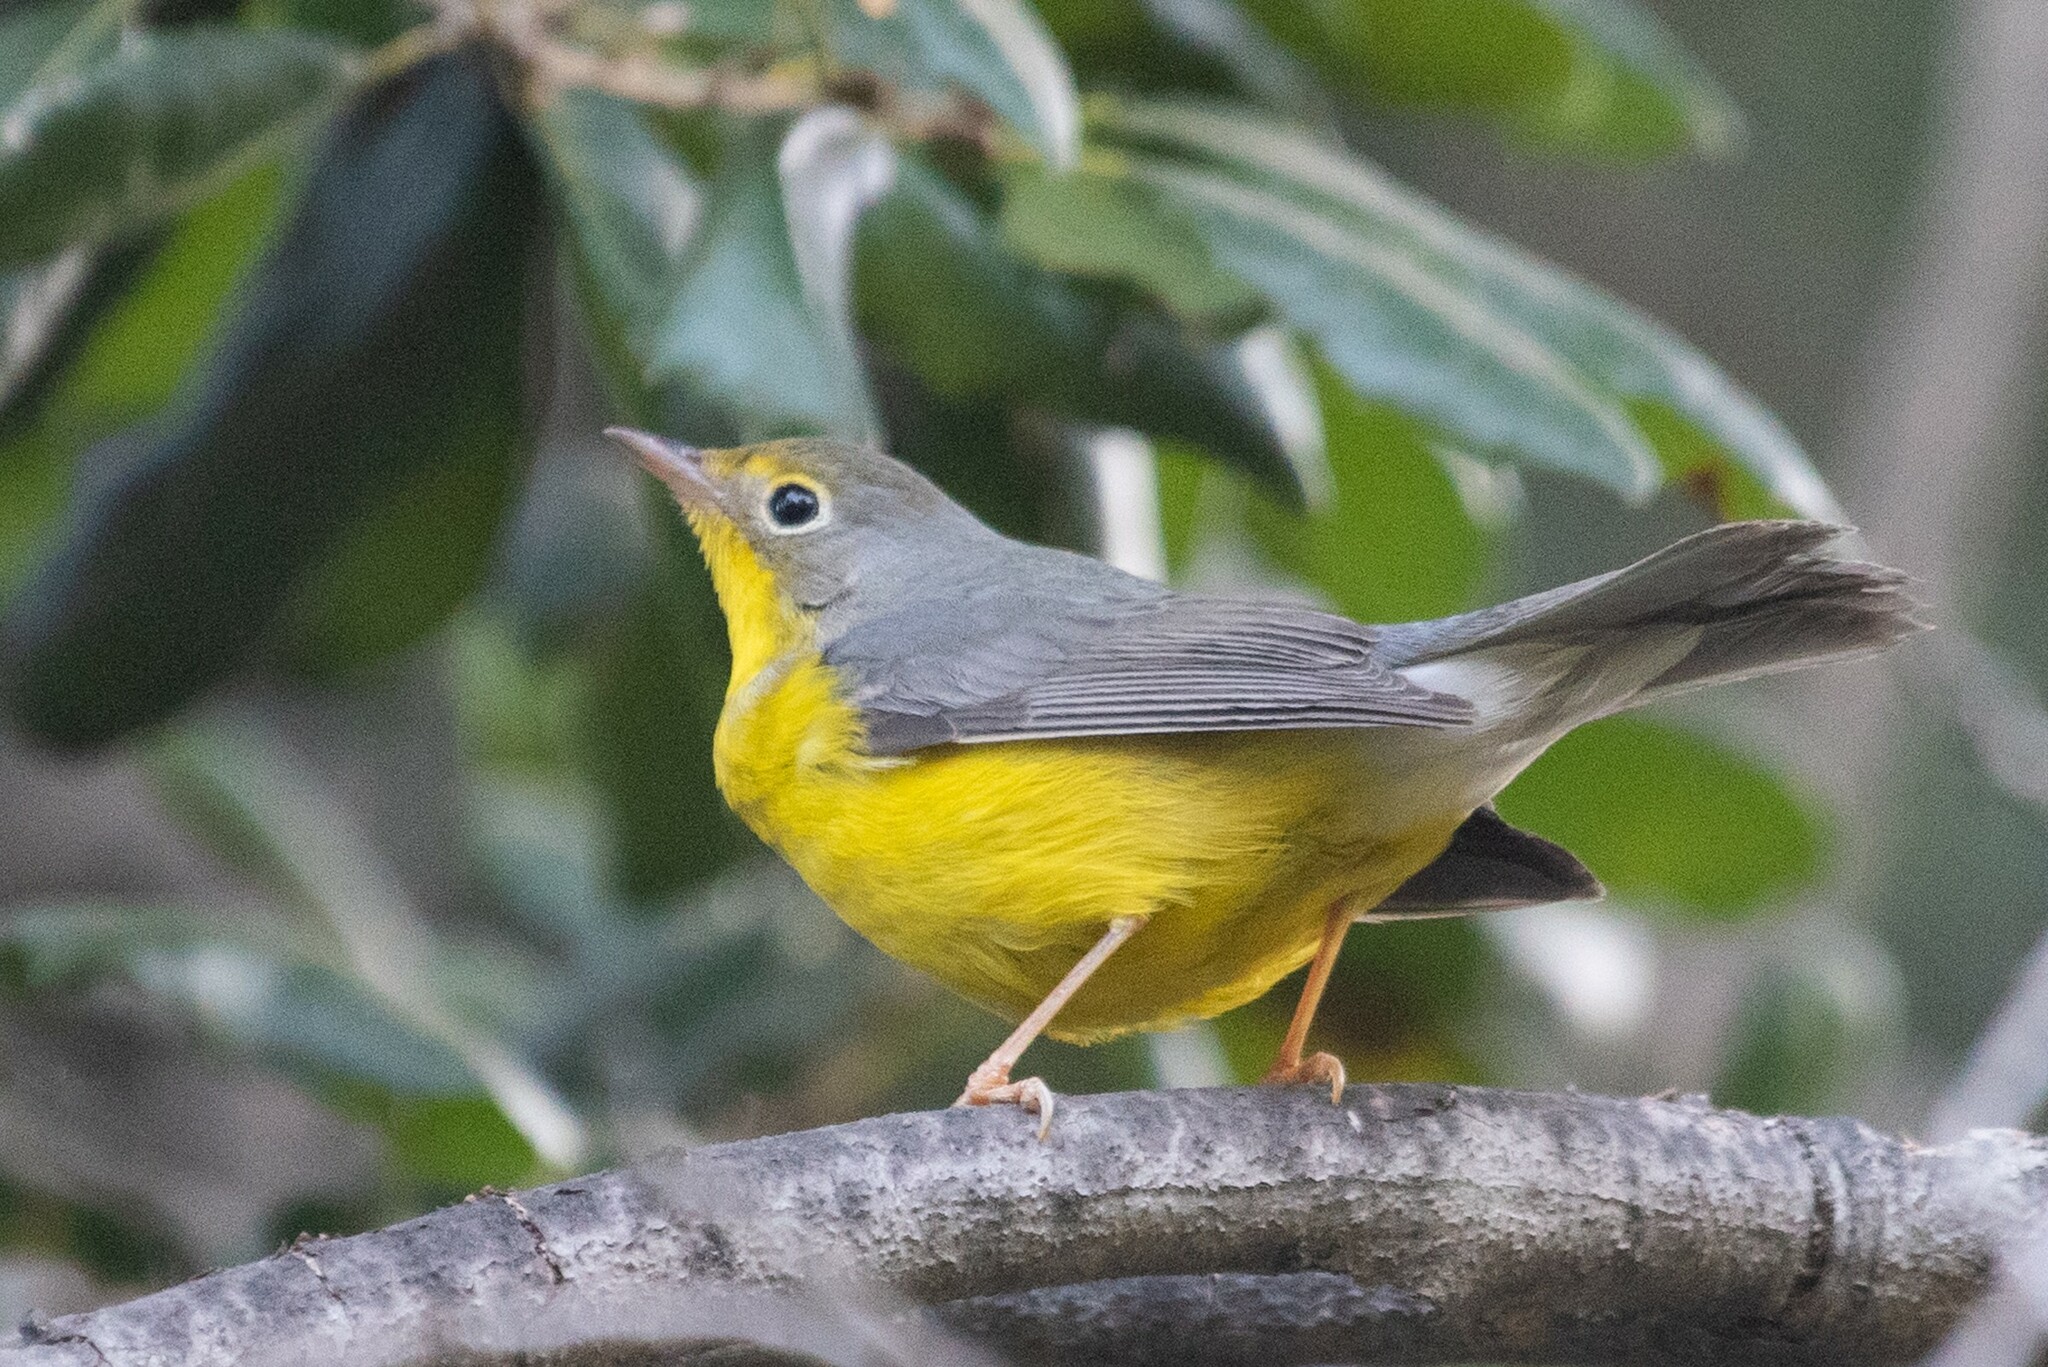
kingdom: Animalia
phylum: Chordata
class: Aves
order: Passeriformes
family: Parulidae
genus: Cardellina
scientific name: Cardellina canadensis
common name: Canada warbler
